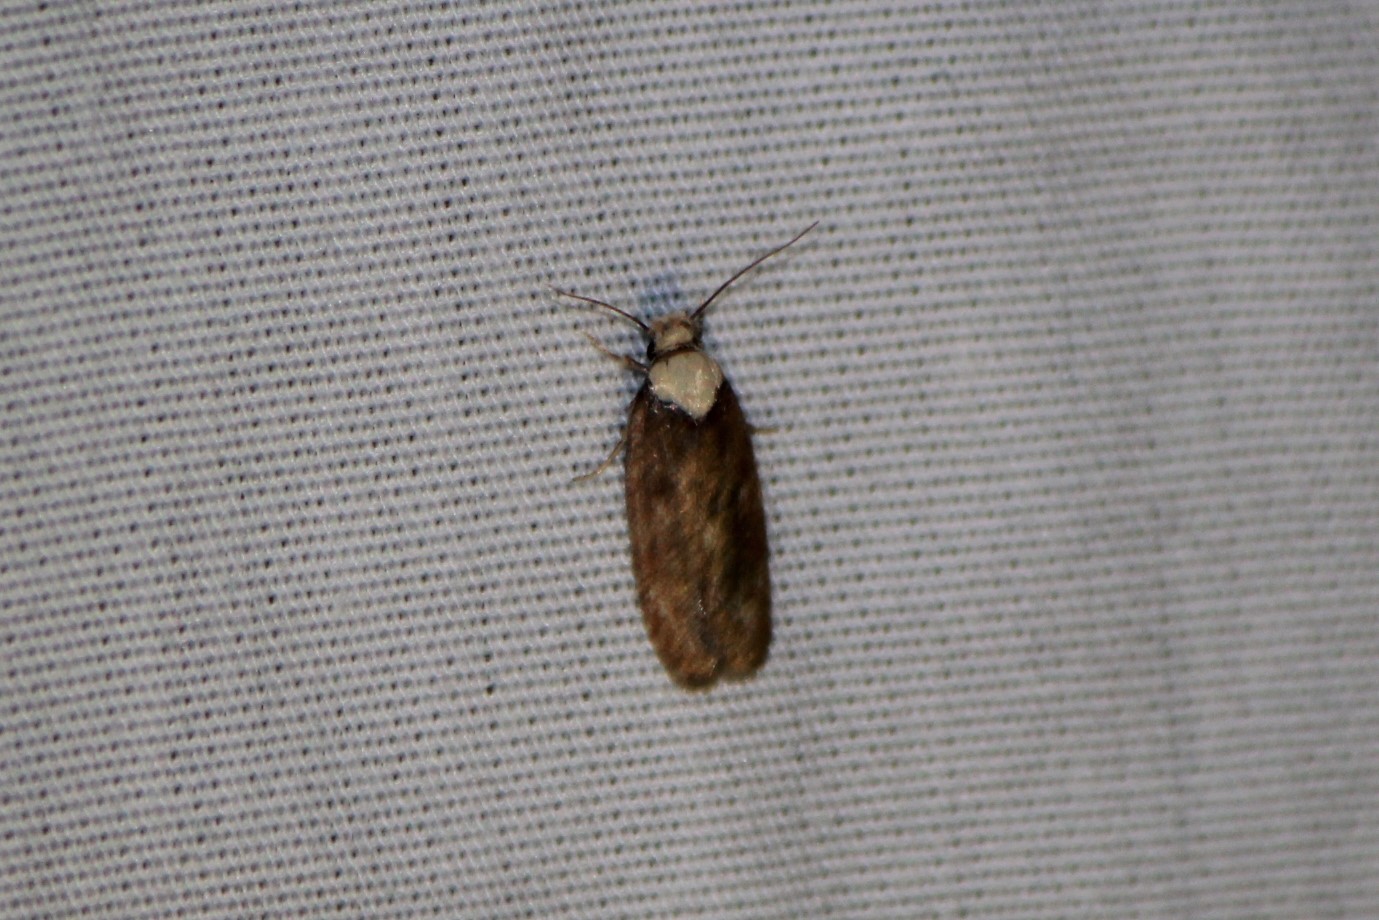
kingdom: Animalia
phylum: Arthropoda
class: Insecta
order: Lepidoptera
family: Depressariidae
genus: Depressaria
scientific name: Depressaria depressana
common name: Lost flat-body
